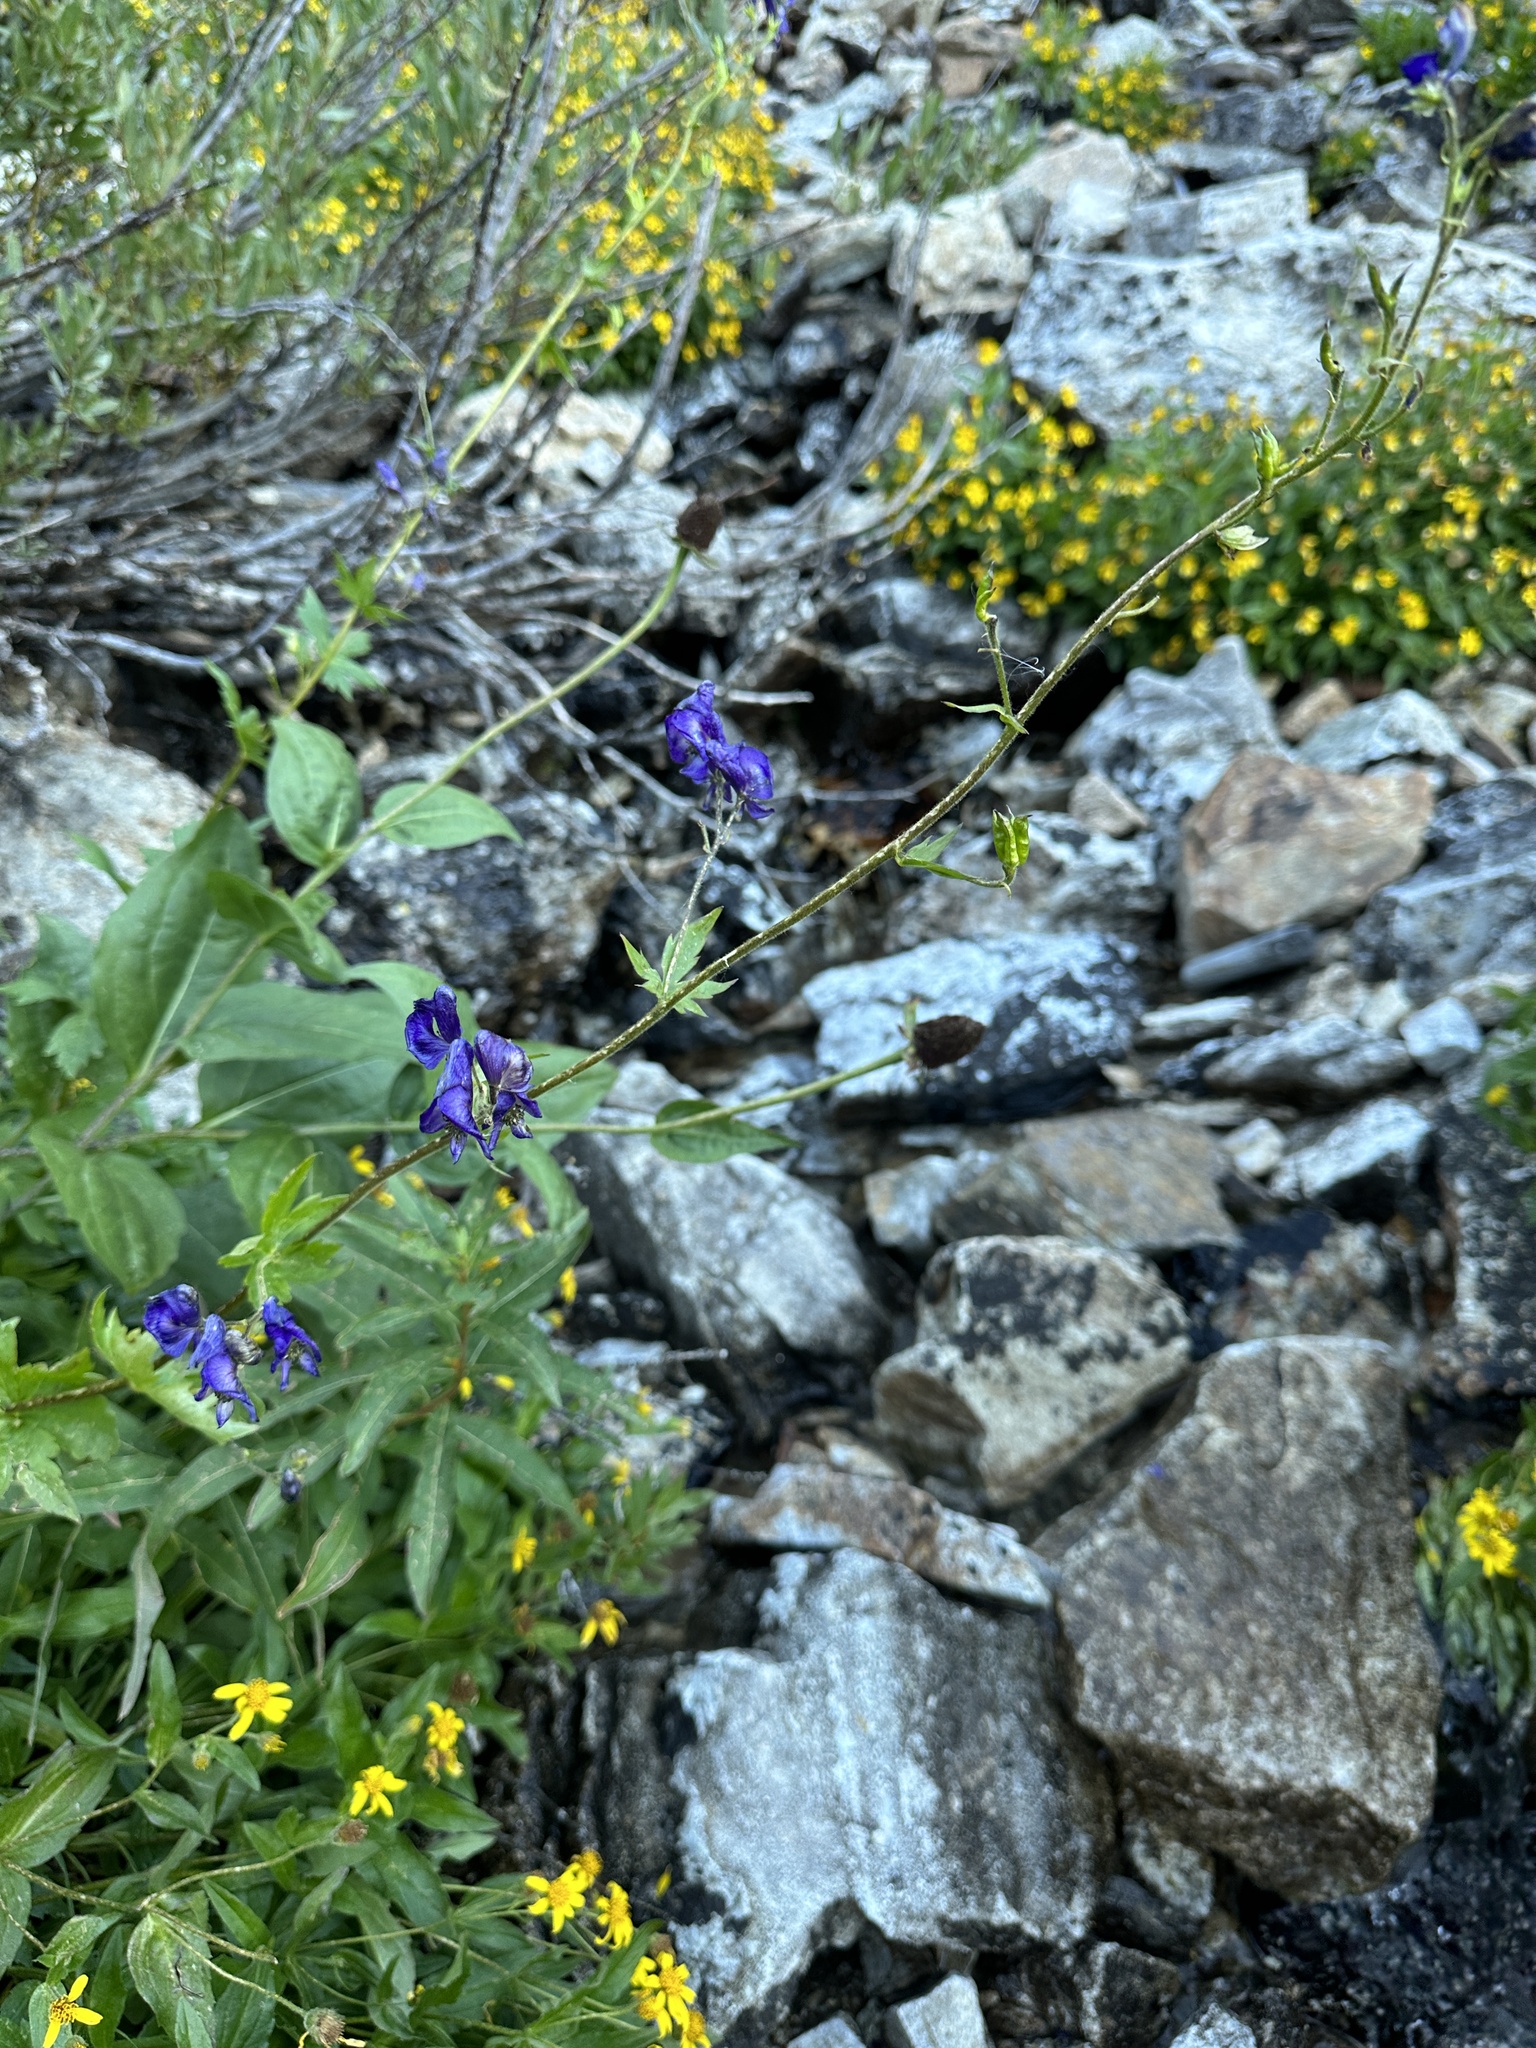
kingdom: Plantae
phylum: Tracheophyta
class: Magnoliopsida
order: Ranunculales
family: Ranunculaceae
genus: Aconitum
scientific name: Aconitum columbianum
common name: Columbia aconite
